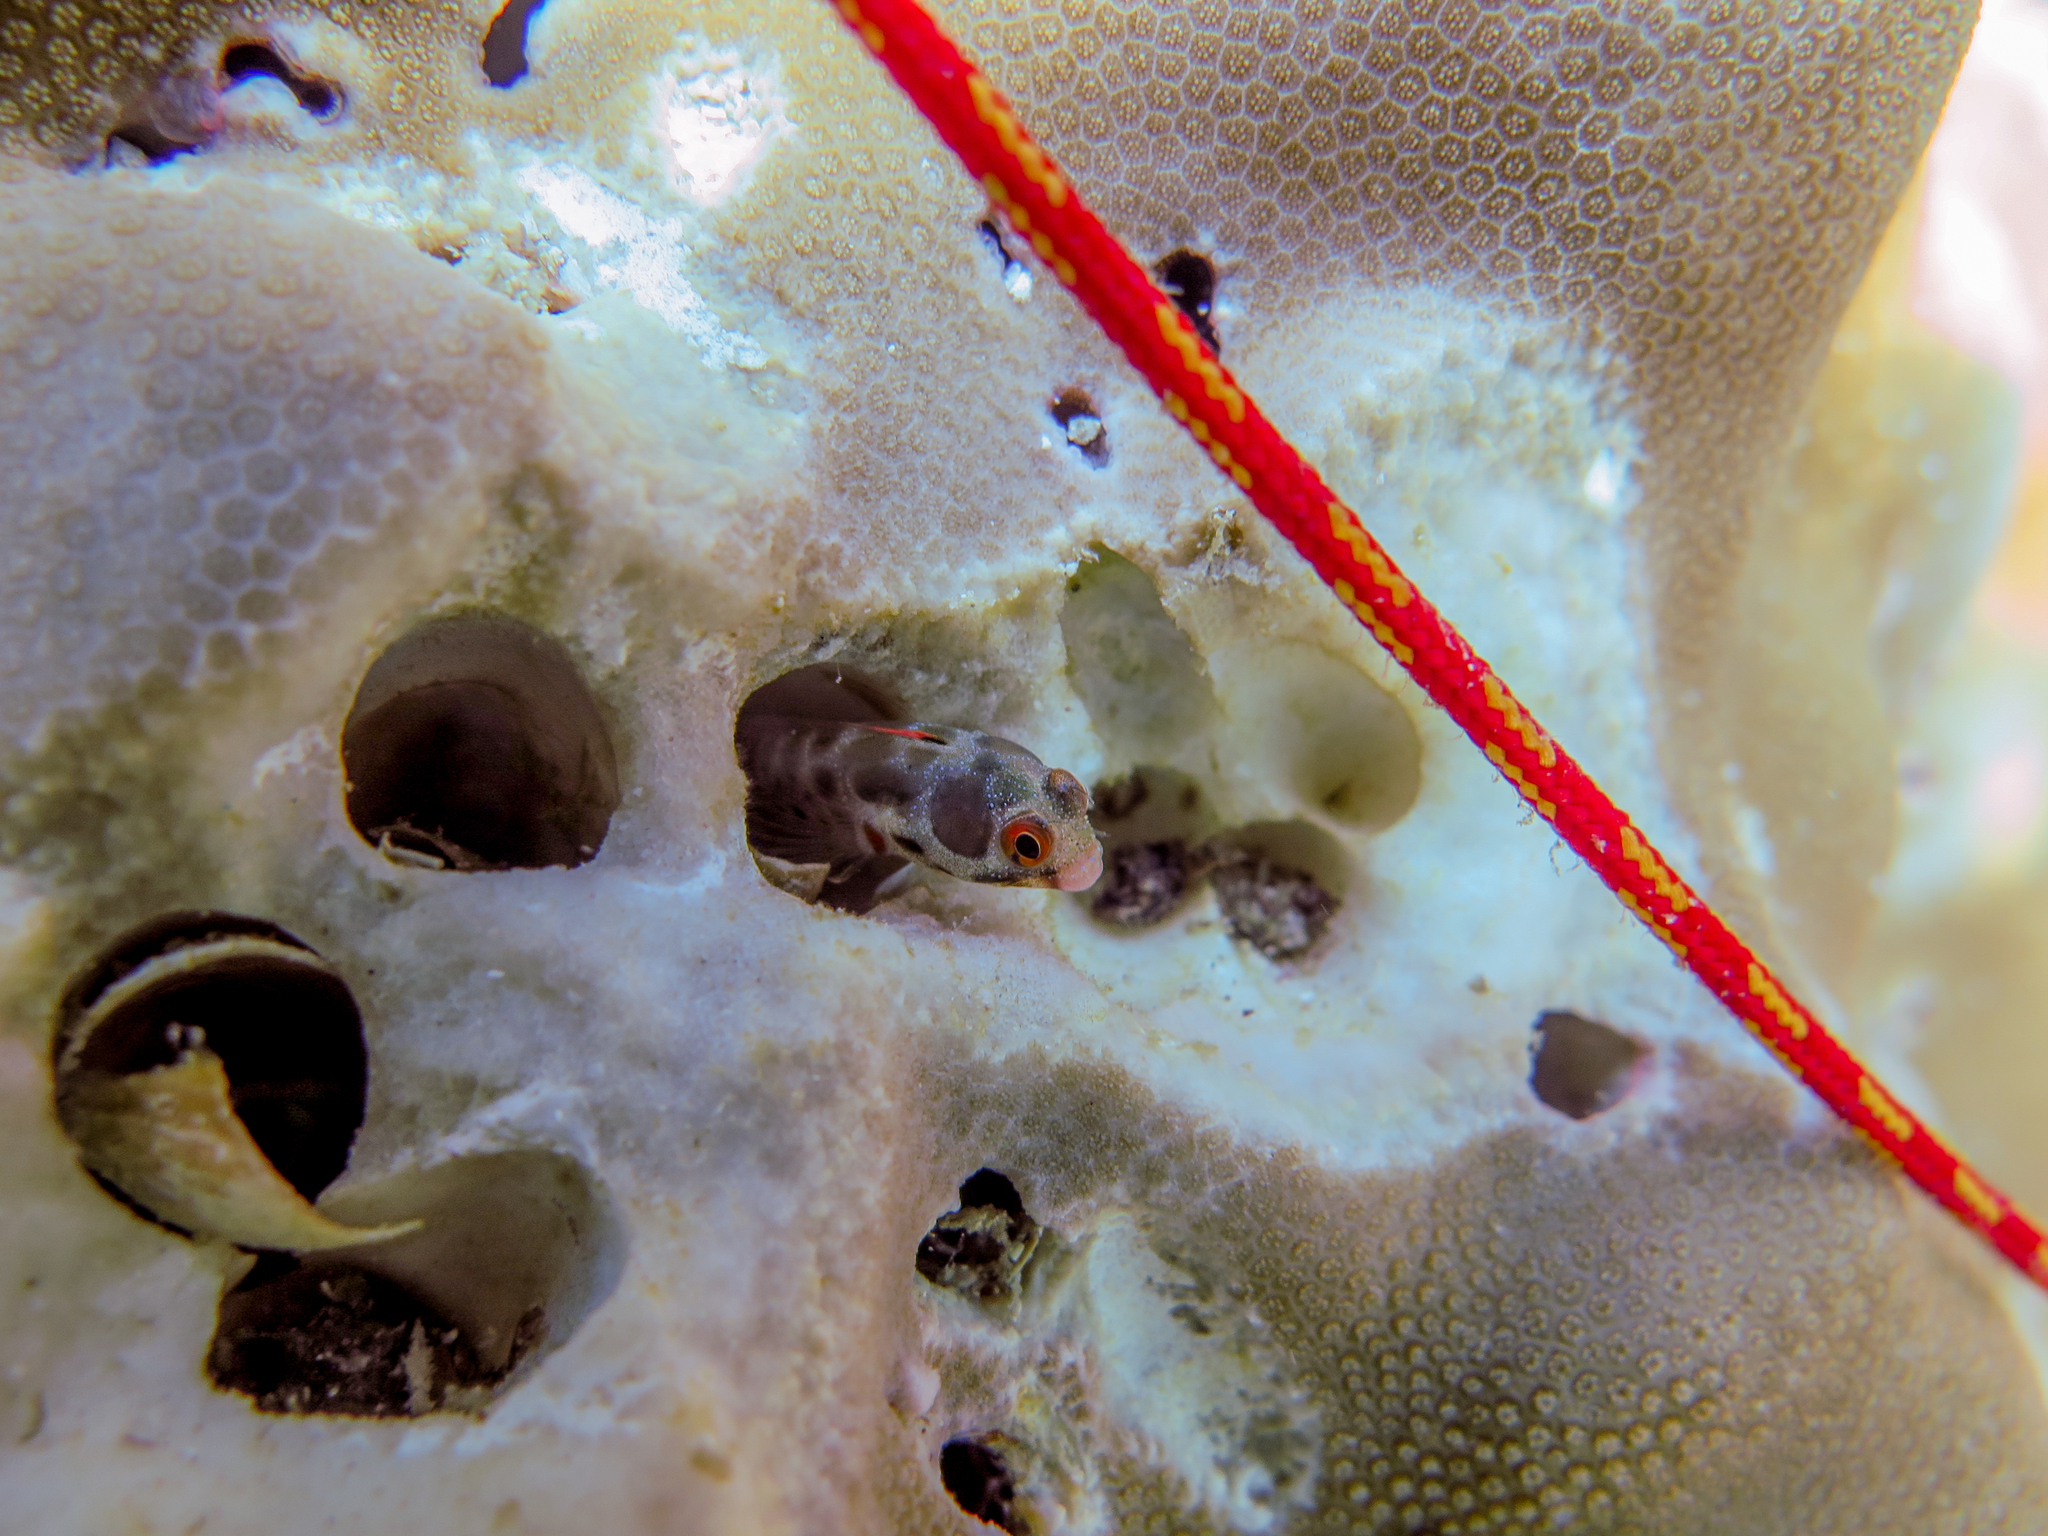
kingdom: Animalia
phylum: Chordata
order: Perciformes
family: Chaenopsidae
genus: Acanthemblemaria
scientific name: Acanthemblemaria hancocki
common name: Hancock's blenny
